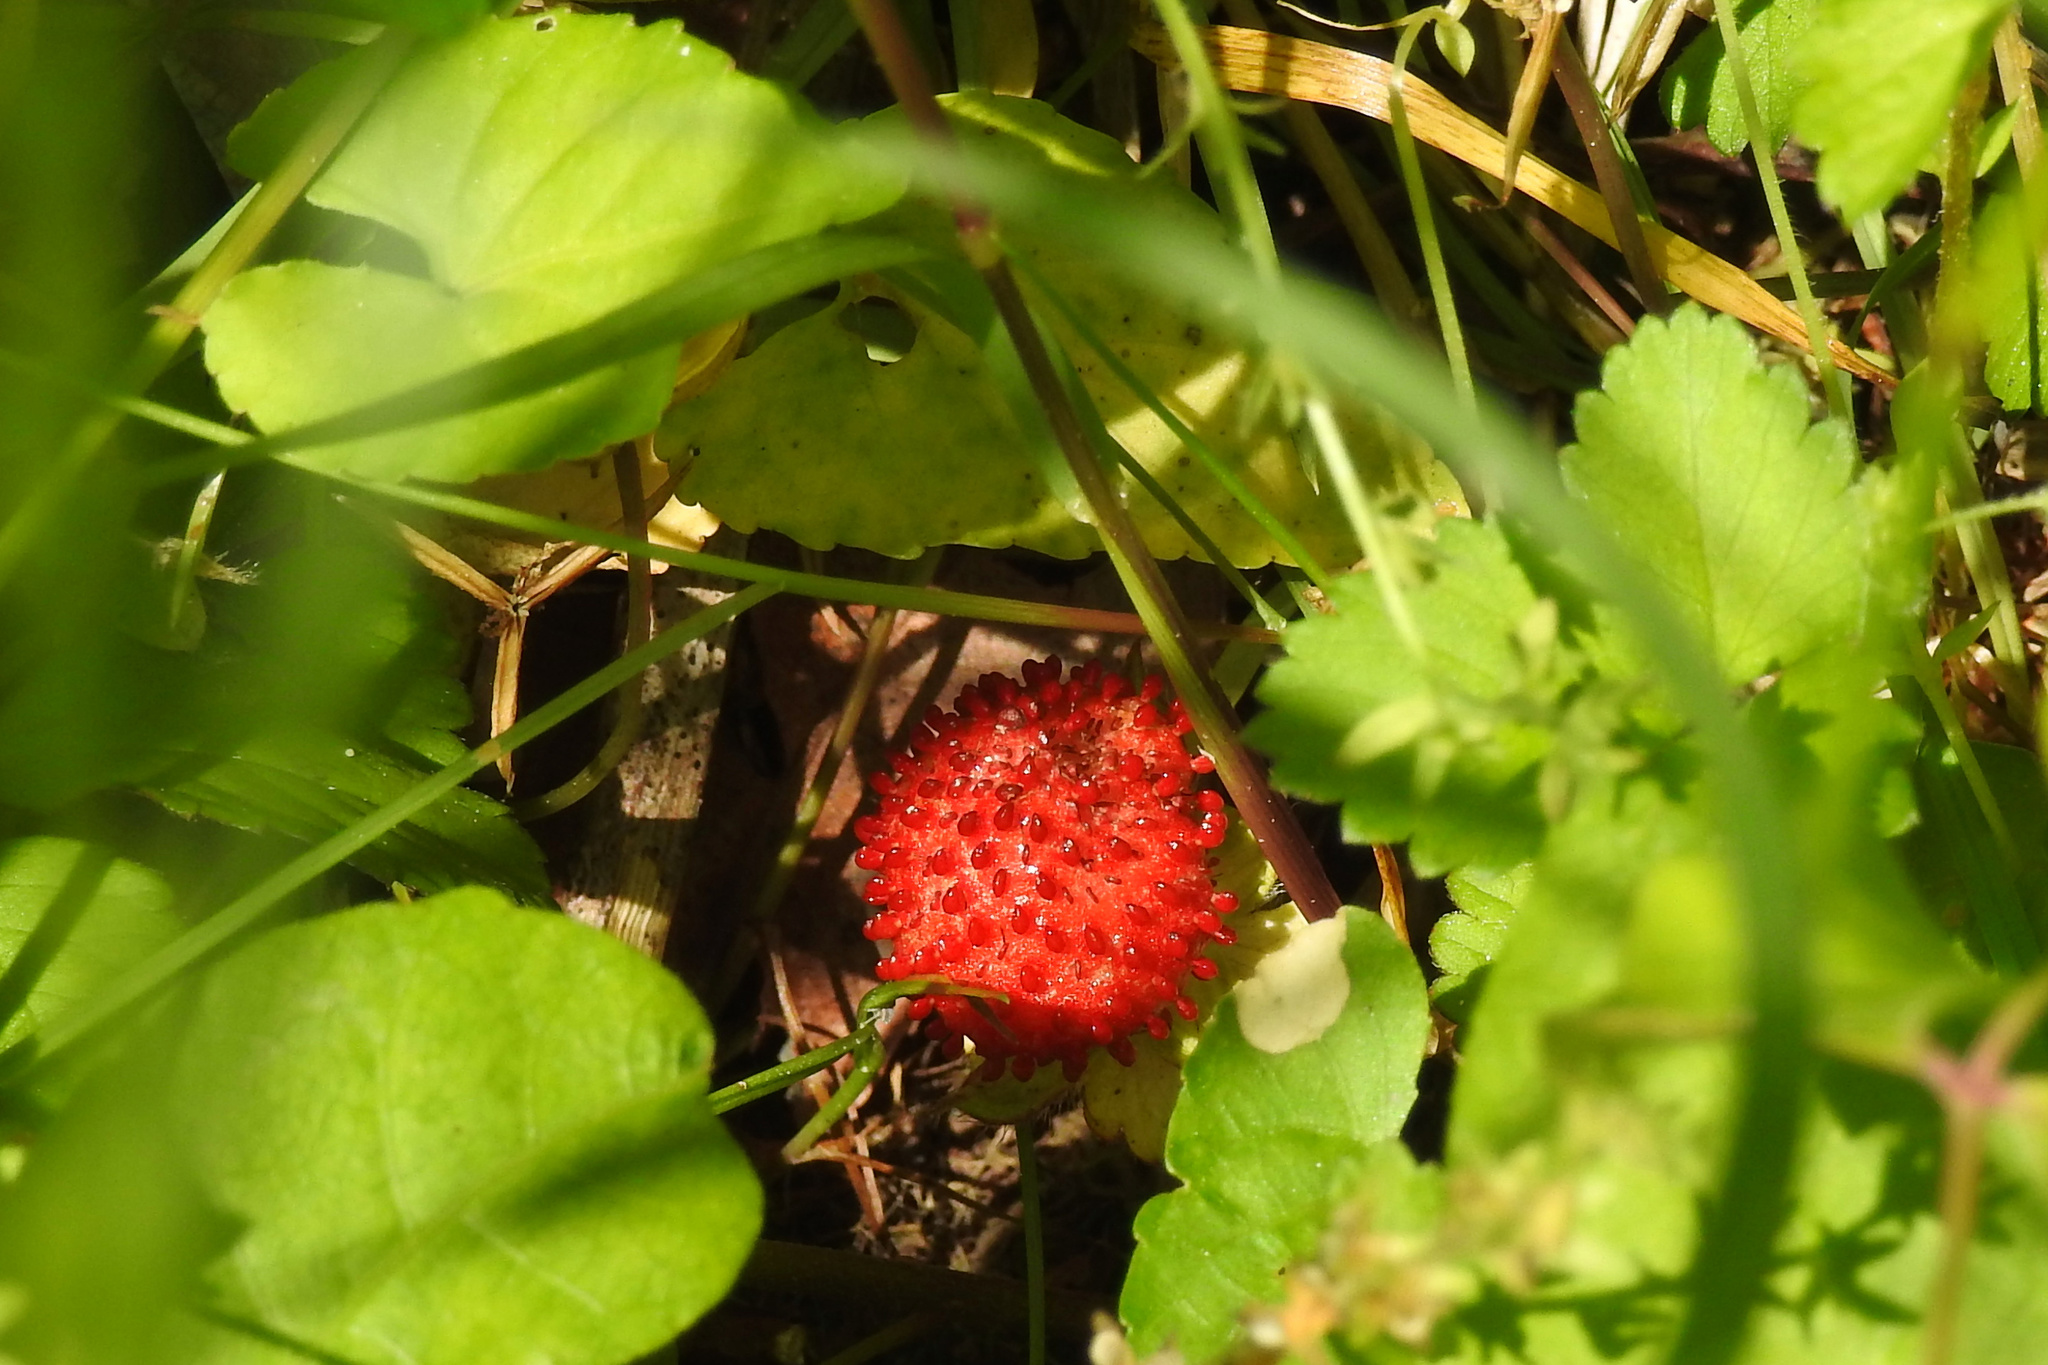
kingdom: Plantae
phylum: Tracheophyta
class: Magnoliopsida
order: Rosales
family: Rosaceae
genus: Potentilla
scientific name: Potentilla indica
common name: Yellow-flowered strawberry
